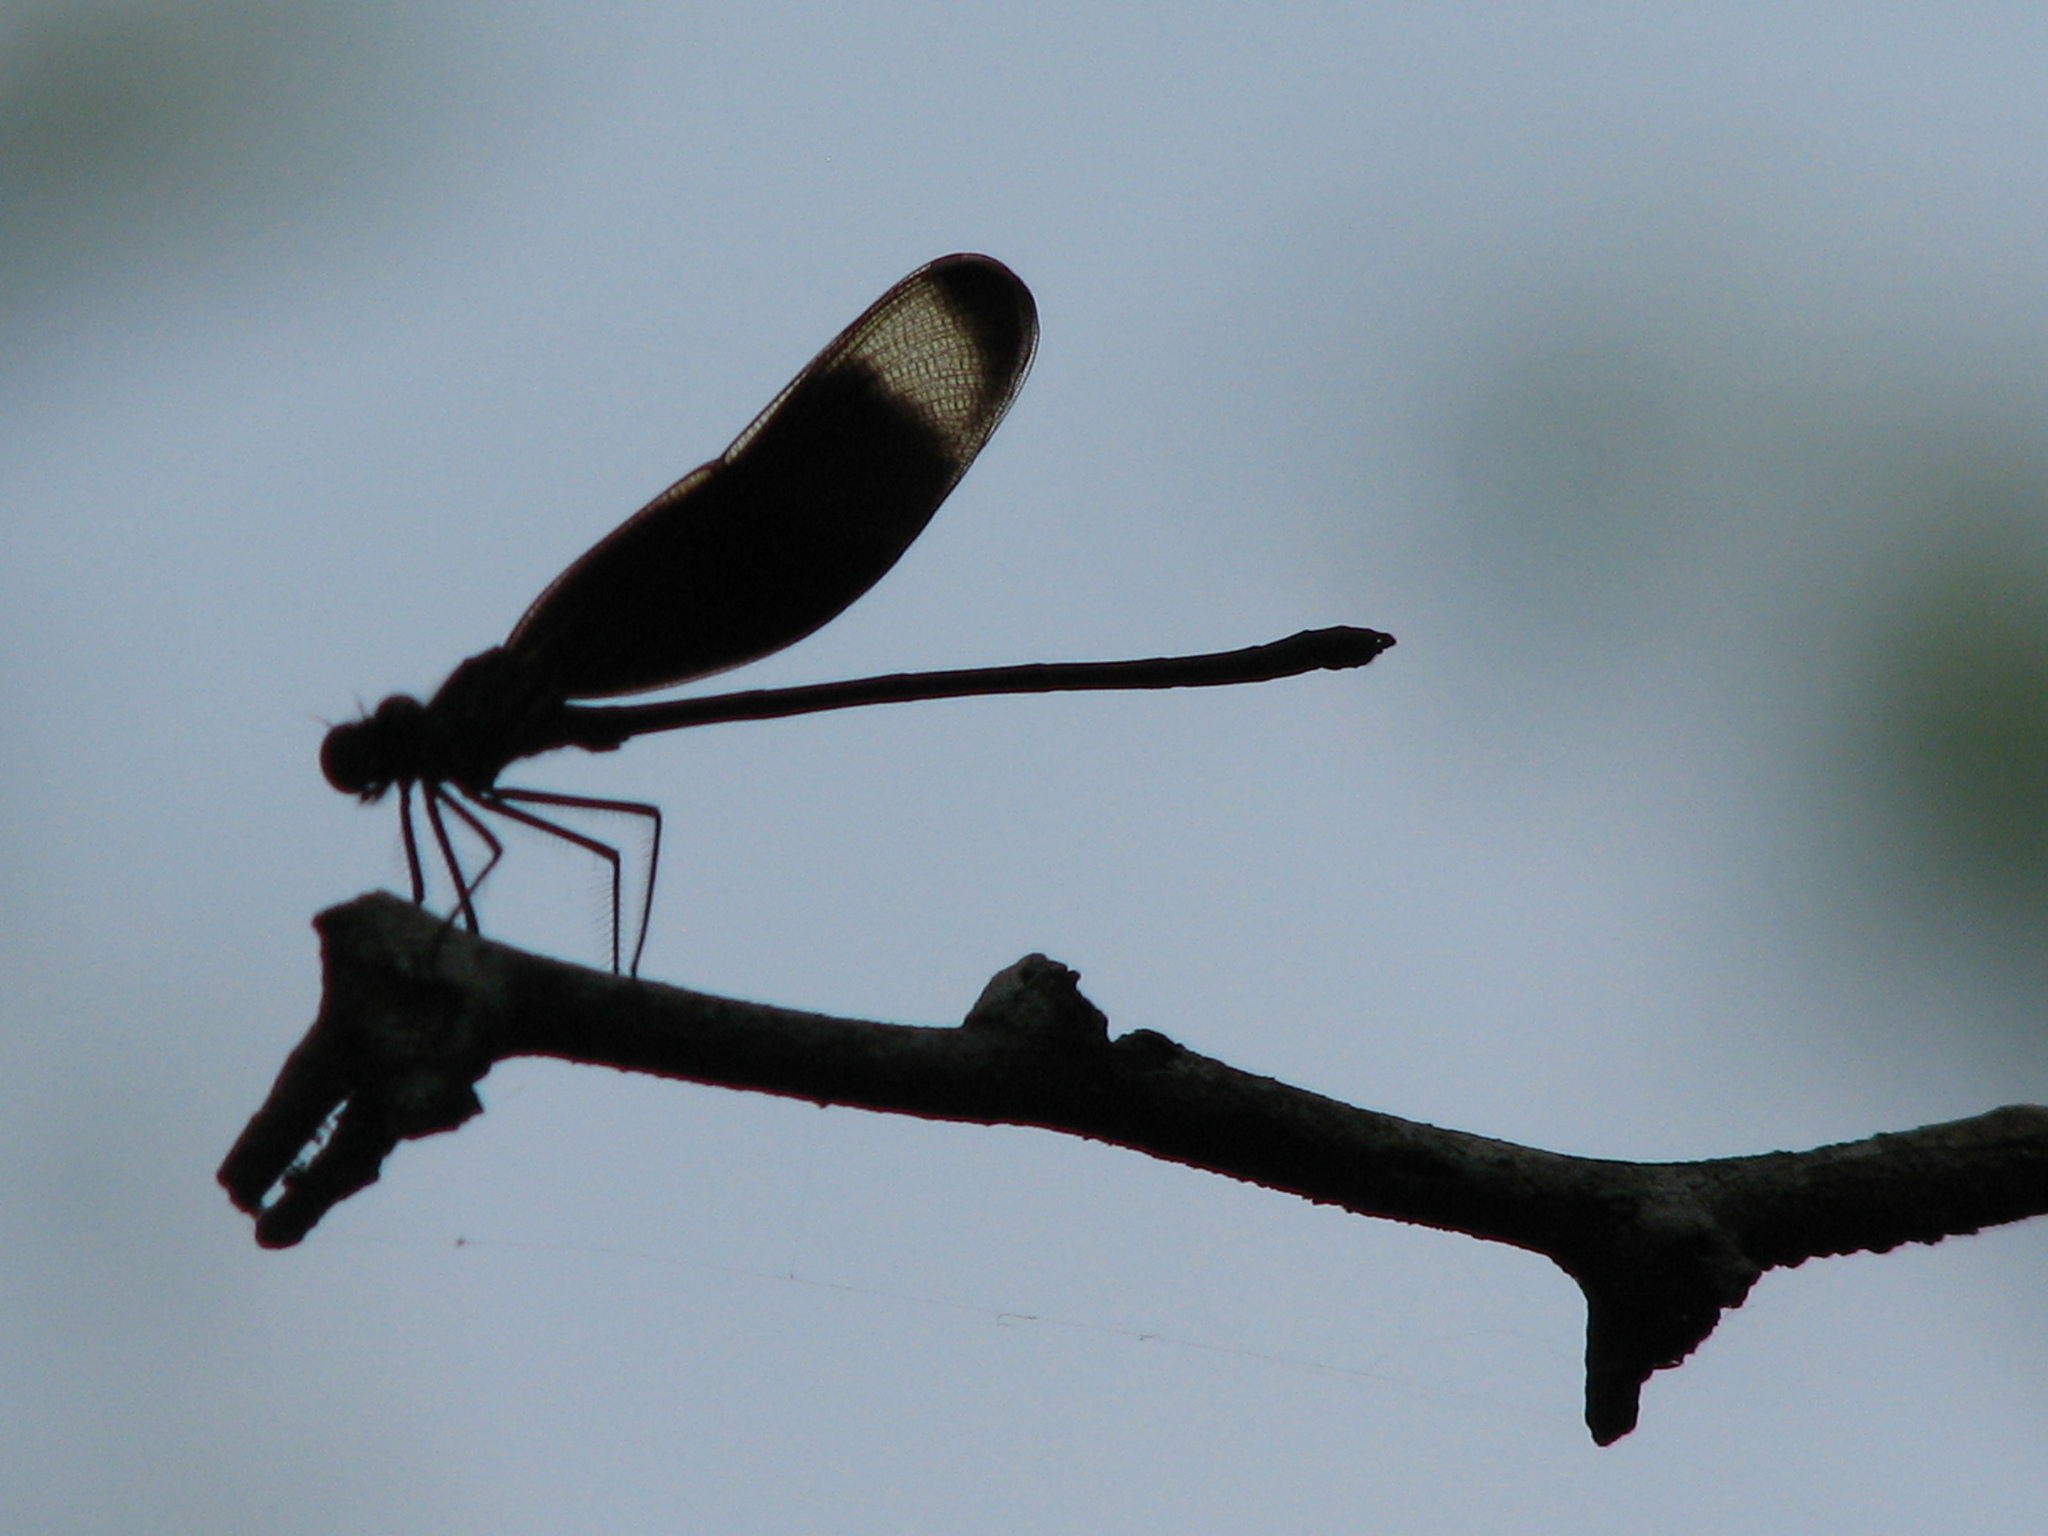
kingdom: Animalia
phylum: Arthropoda
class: Insecta
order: Odonata
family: Calopterygidae
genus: Hetaerina
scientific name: Hetaerina titia
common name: Smoky rubyspot
